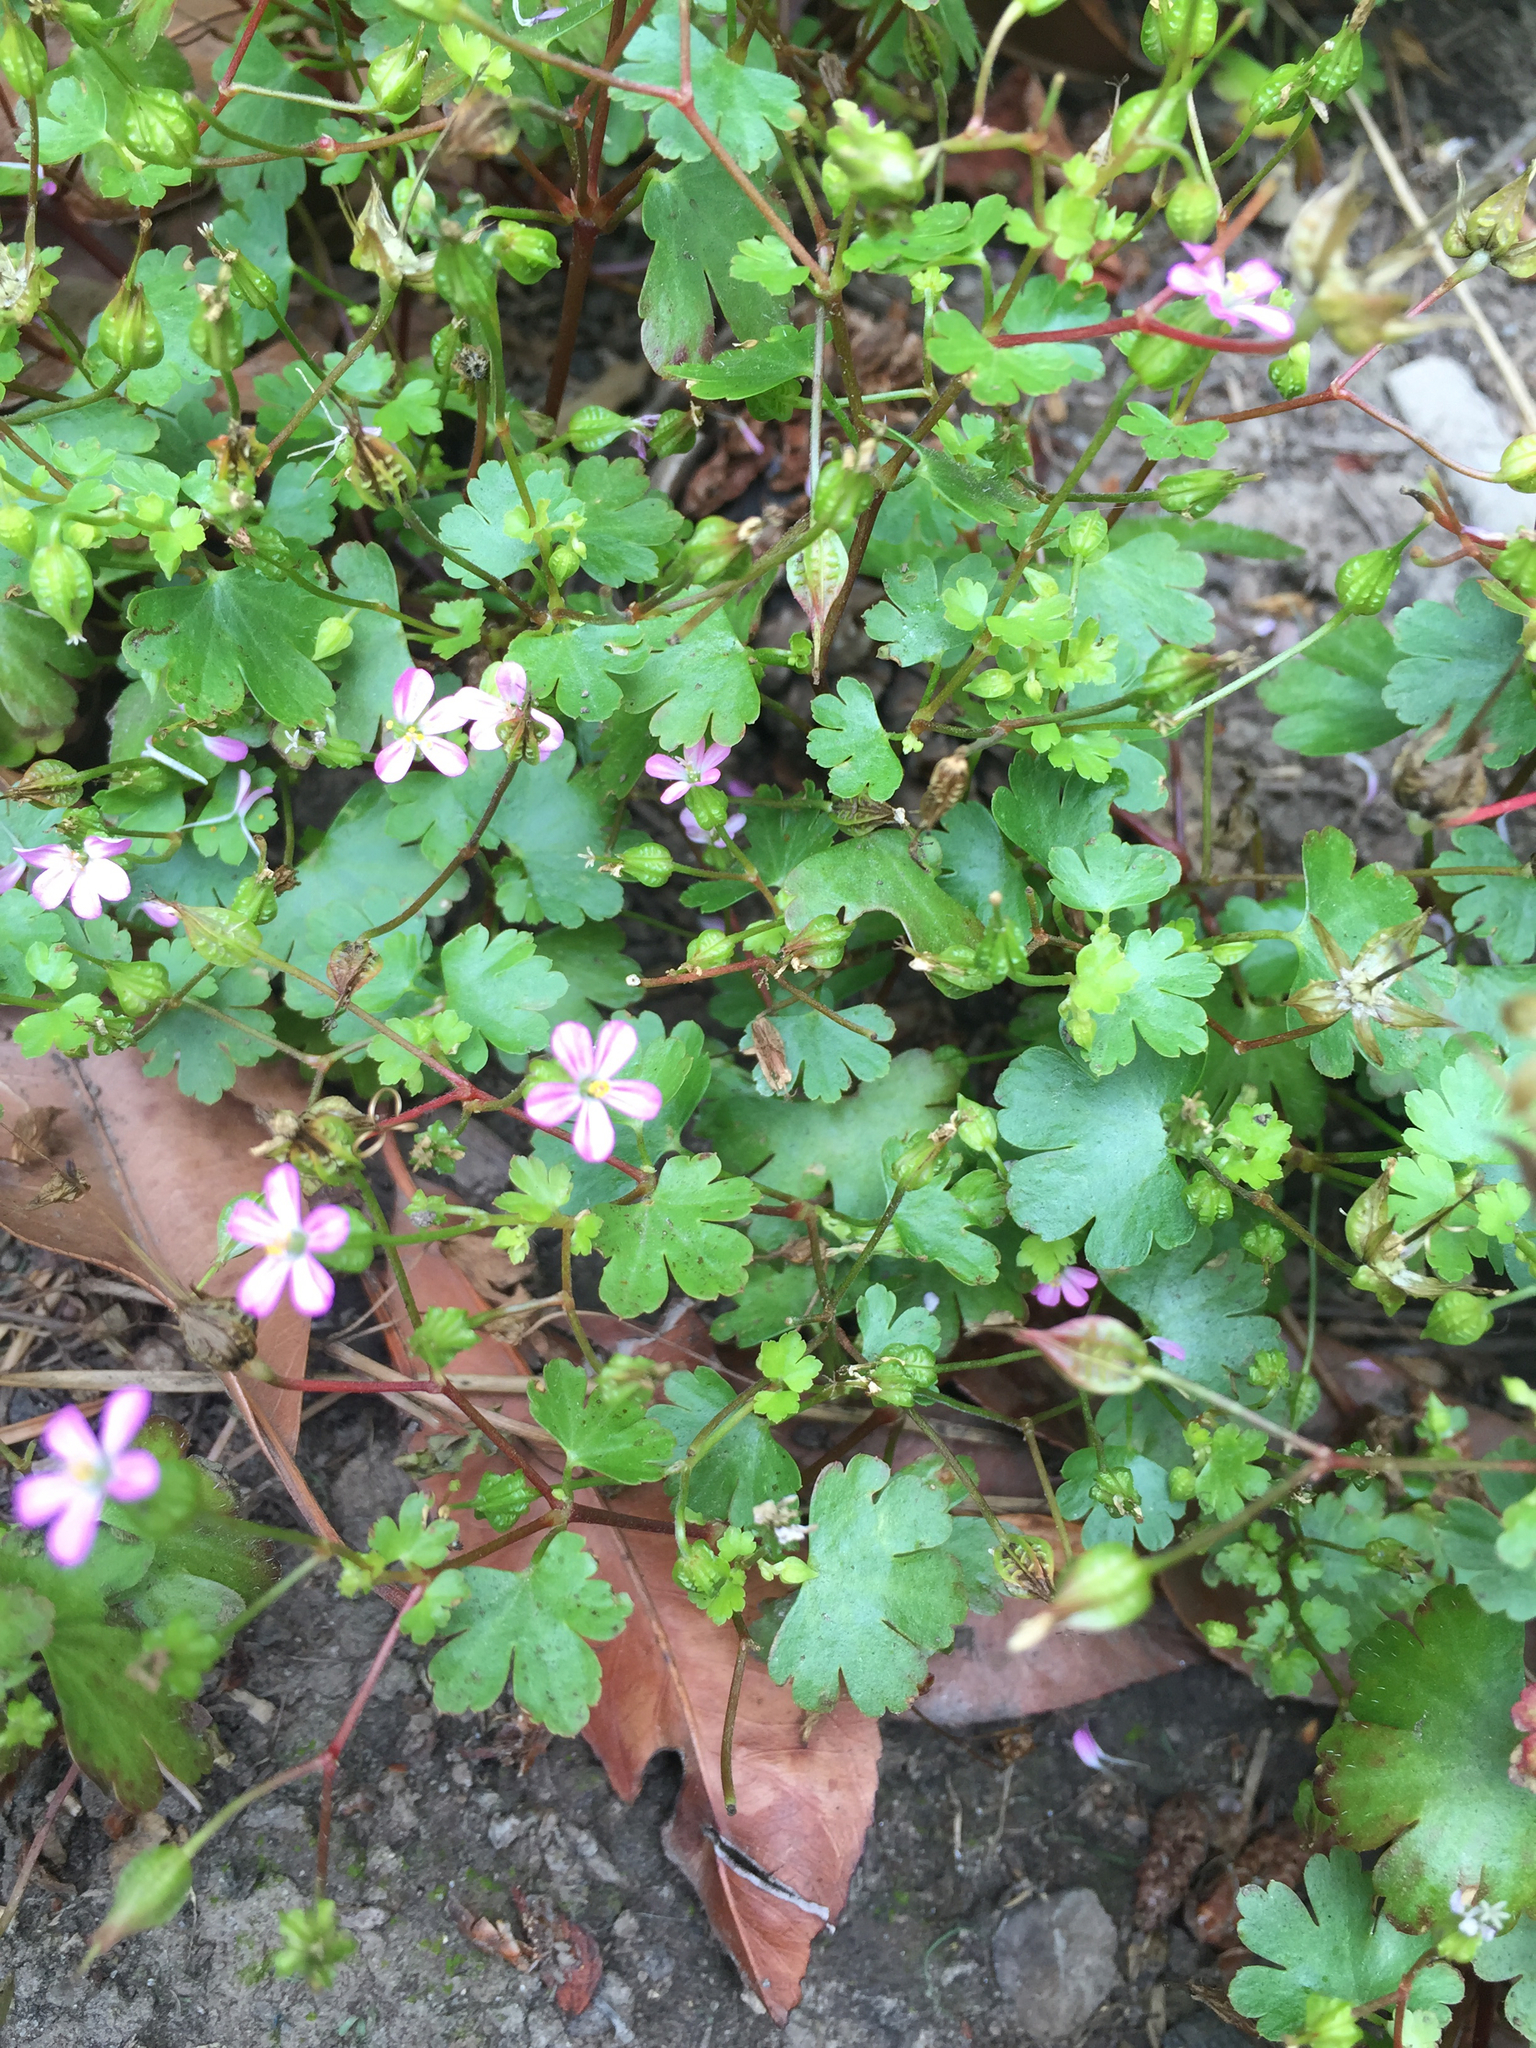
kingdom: Plantae
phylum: Tracheophyta
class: Magnoliopsida
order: Geraniales
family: Geraniaceae
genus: Geranium
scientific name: Geranium lucidum
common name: Shining crane's-bill
